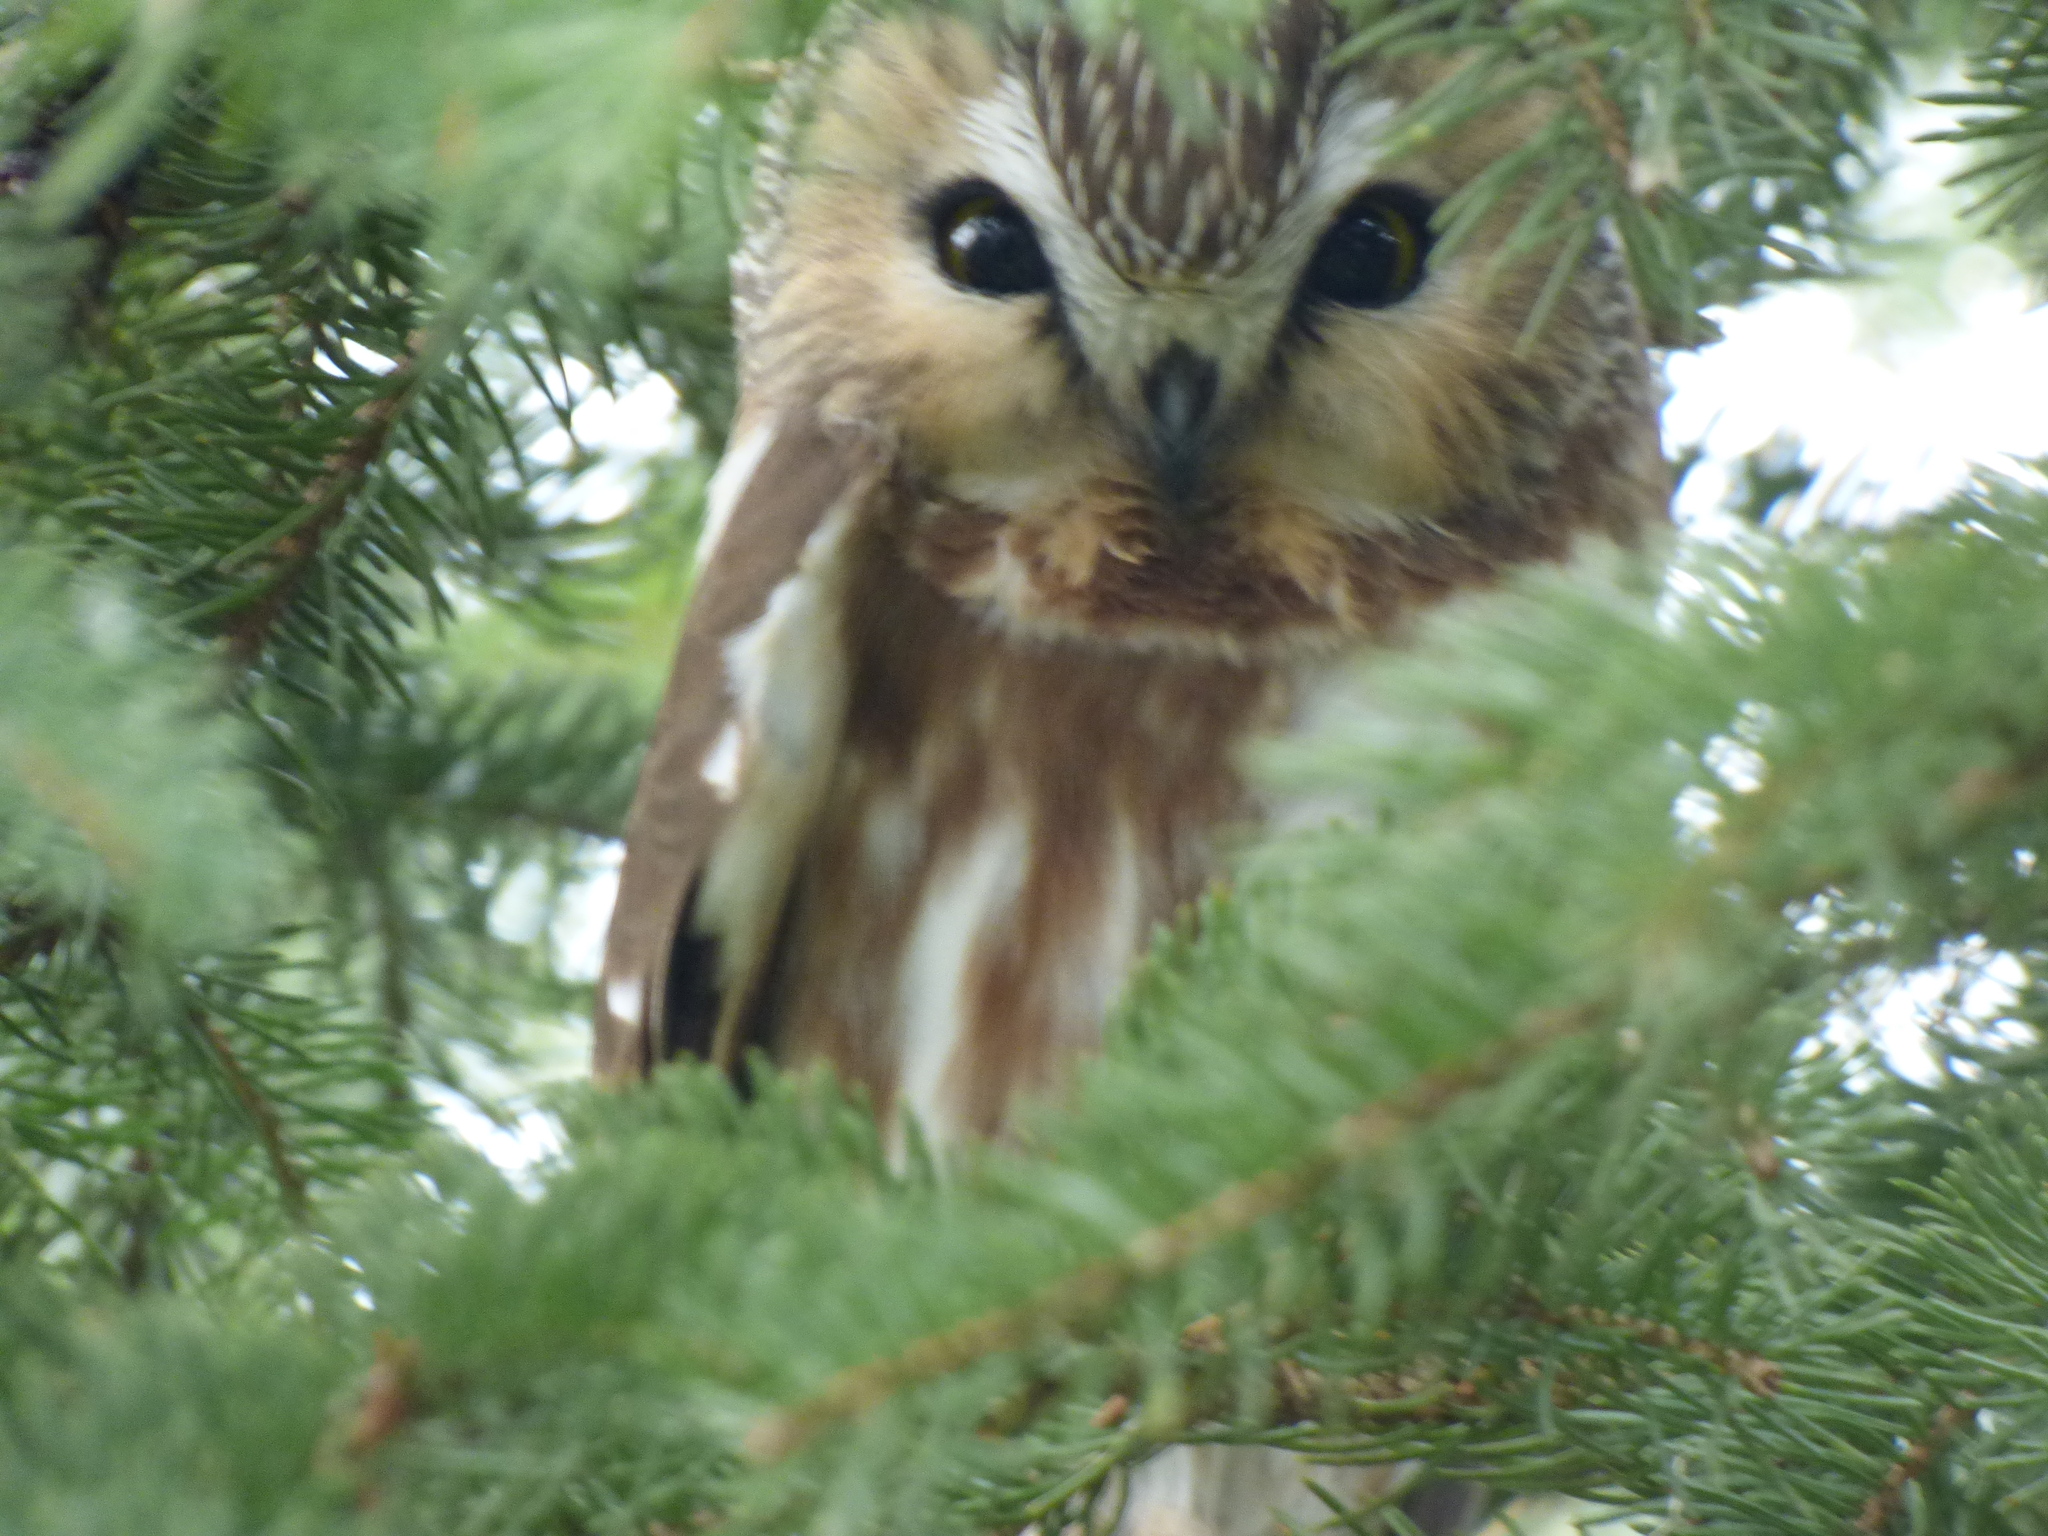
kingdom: Animalia
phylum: Chordata
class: Aves
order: Strigiformes
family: Strigidae
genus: Aegolius
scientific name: Aegolius acadicus
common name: Northern saw-whet owl
